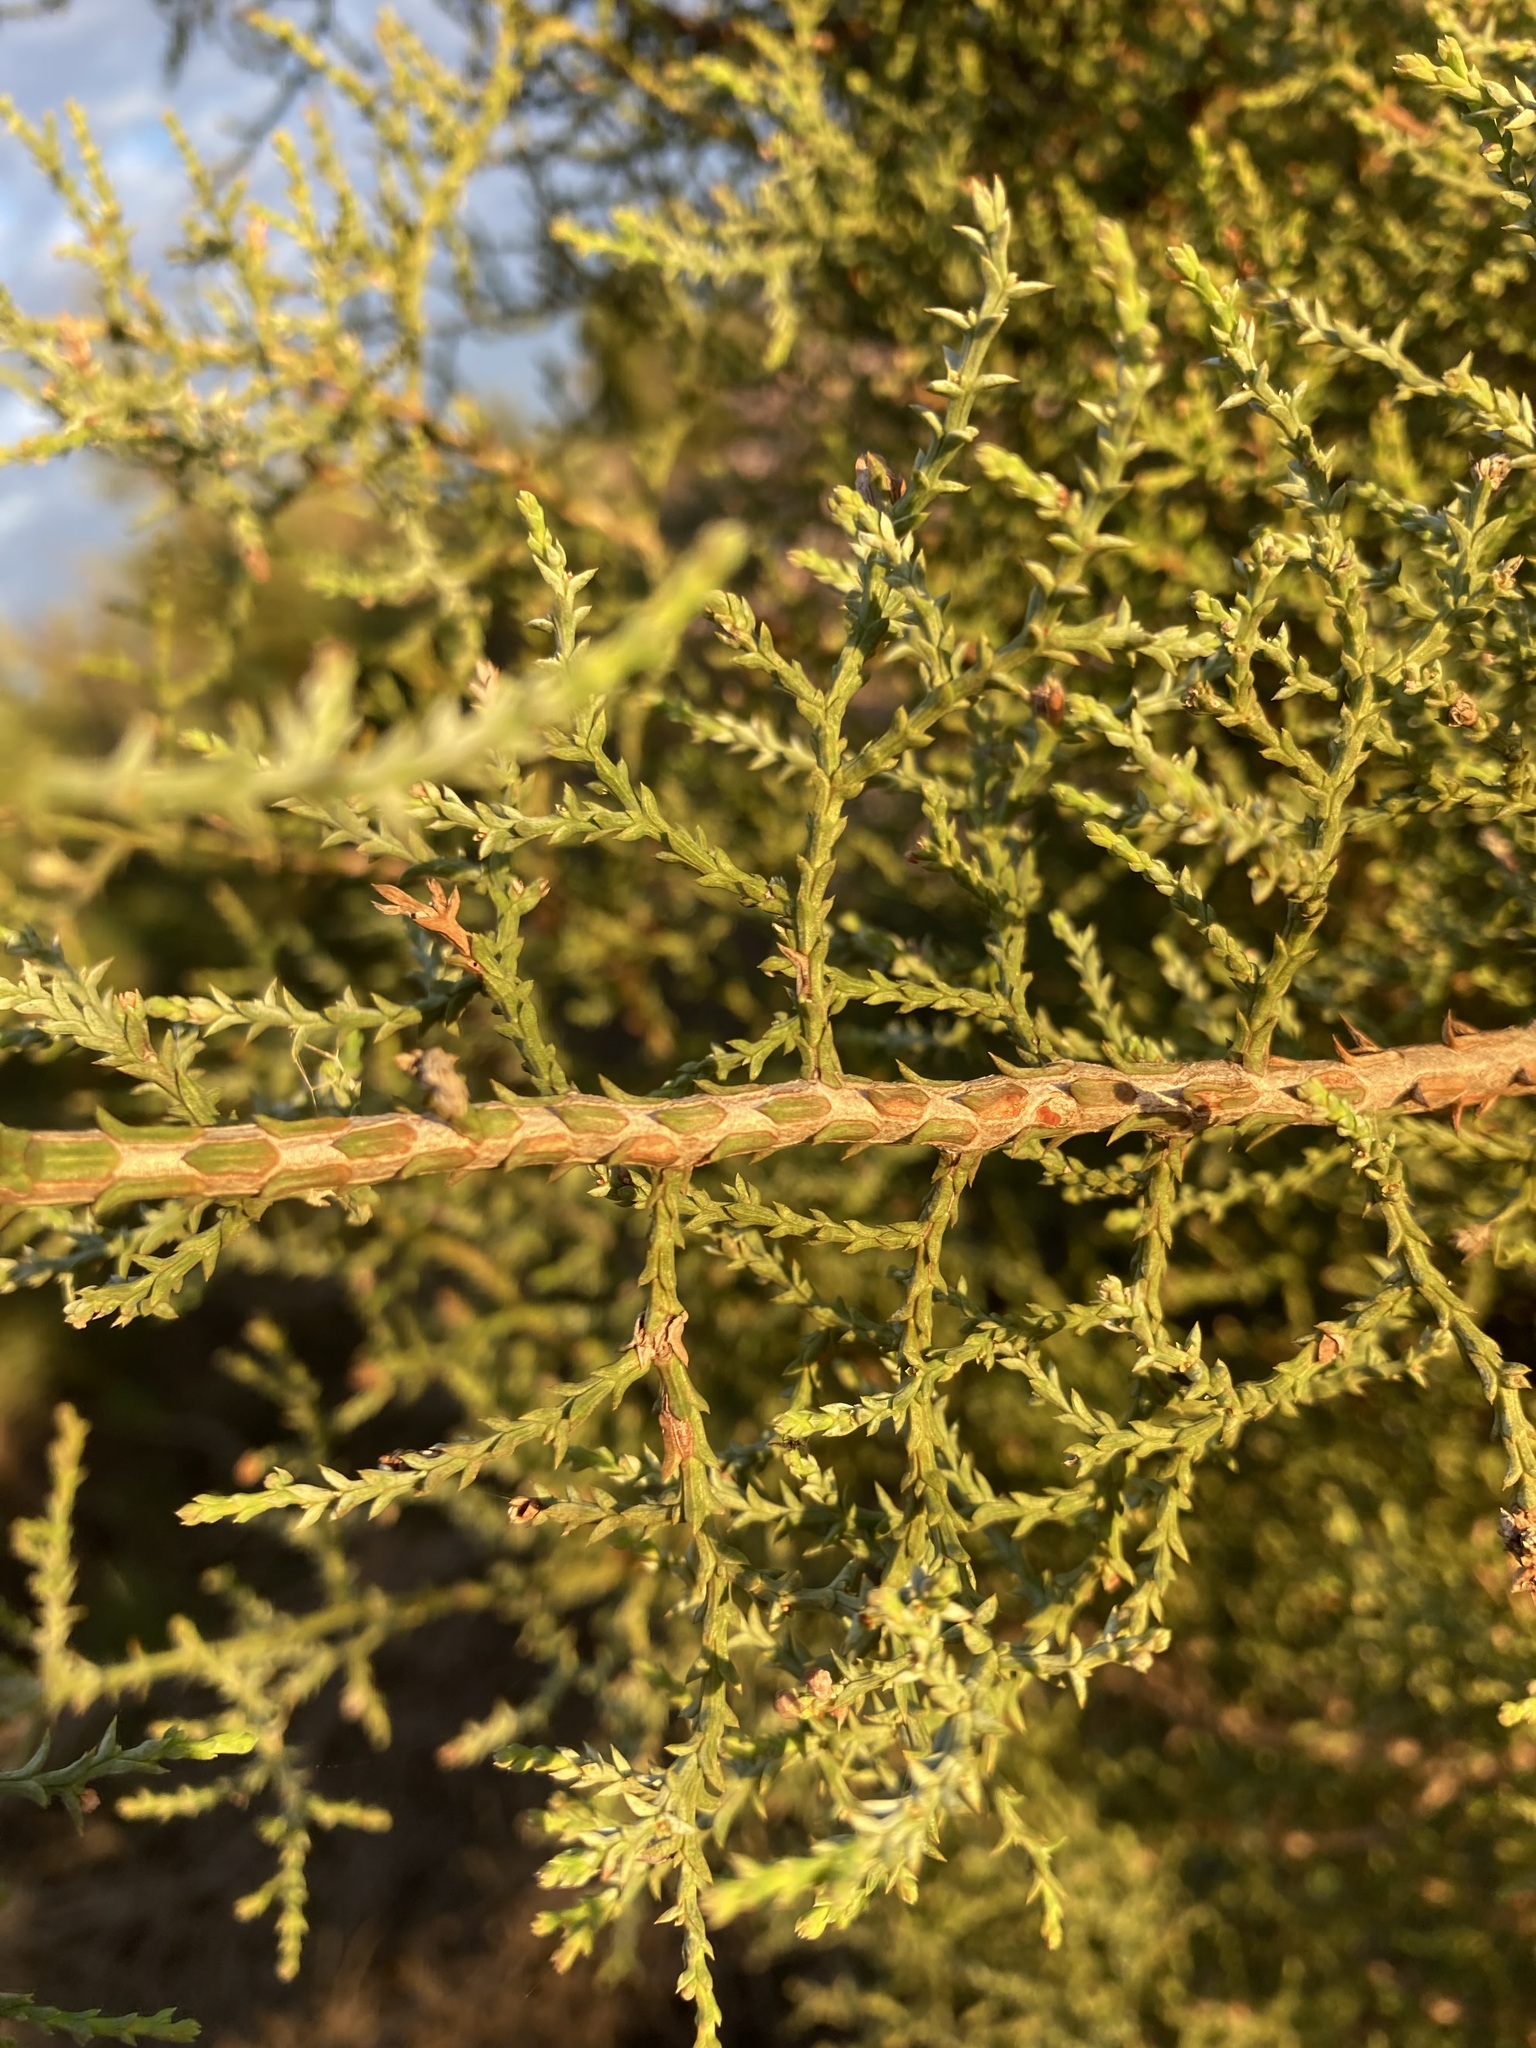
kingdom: Plantae
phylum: Tracheophyta
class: Pinopsida
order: Pinales
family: Cupressaceae
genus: Actinostrobus
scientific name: Actinostrobus arenarius
